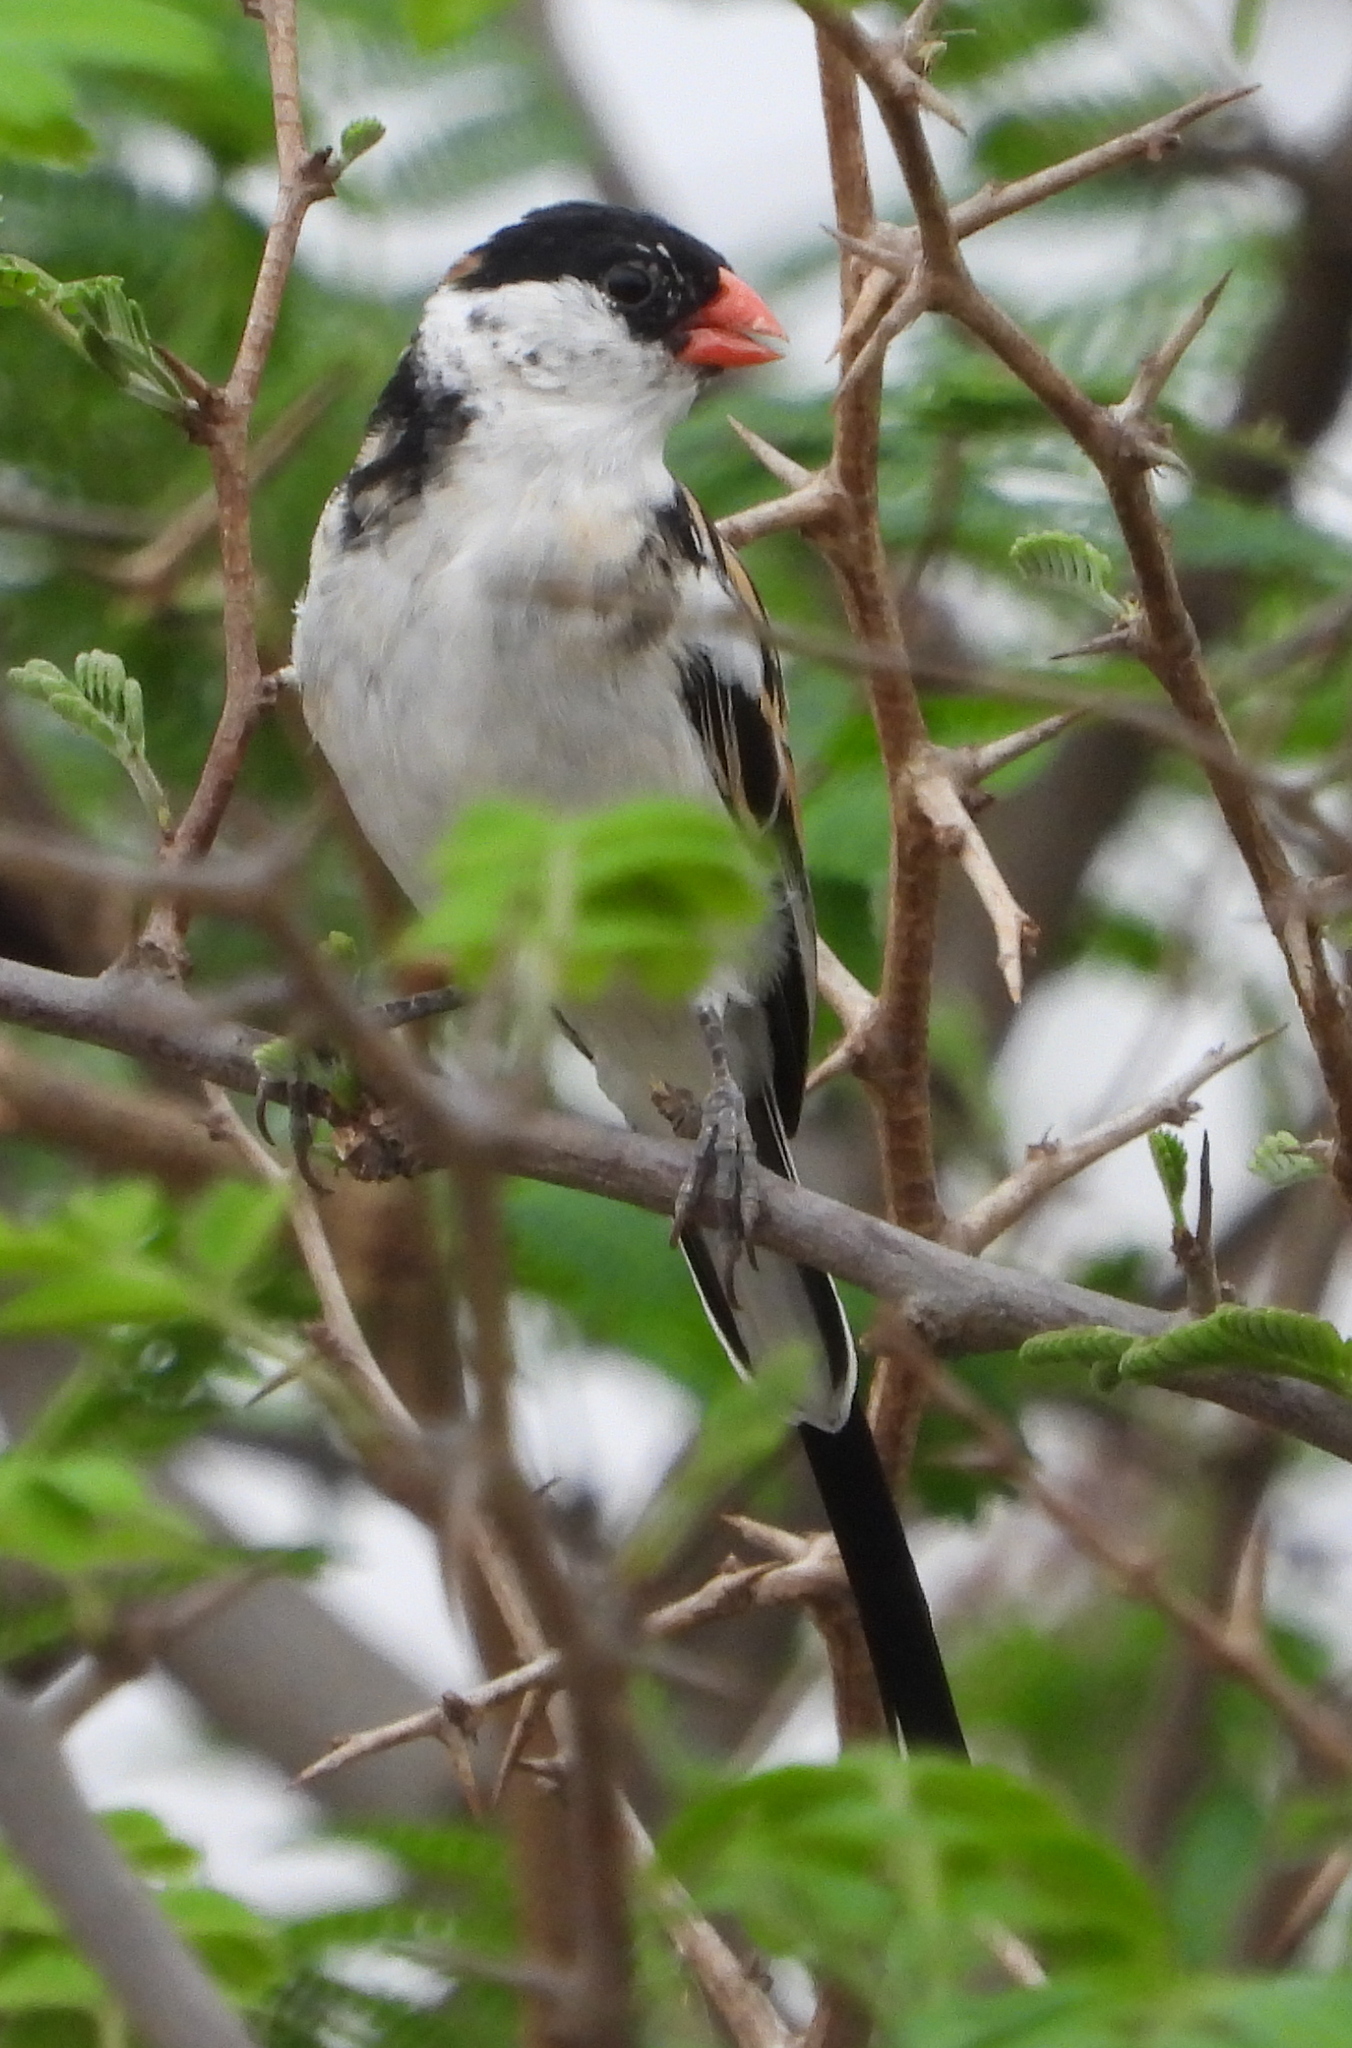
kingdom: Animalia
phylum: Chordata
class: Aves
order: Passeriformes
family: Viduidae
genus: Vidua
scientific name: Vidua macroura
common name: Pin-tailed whydah
